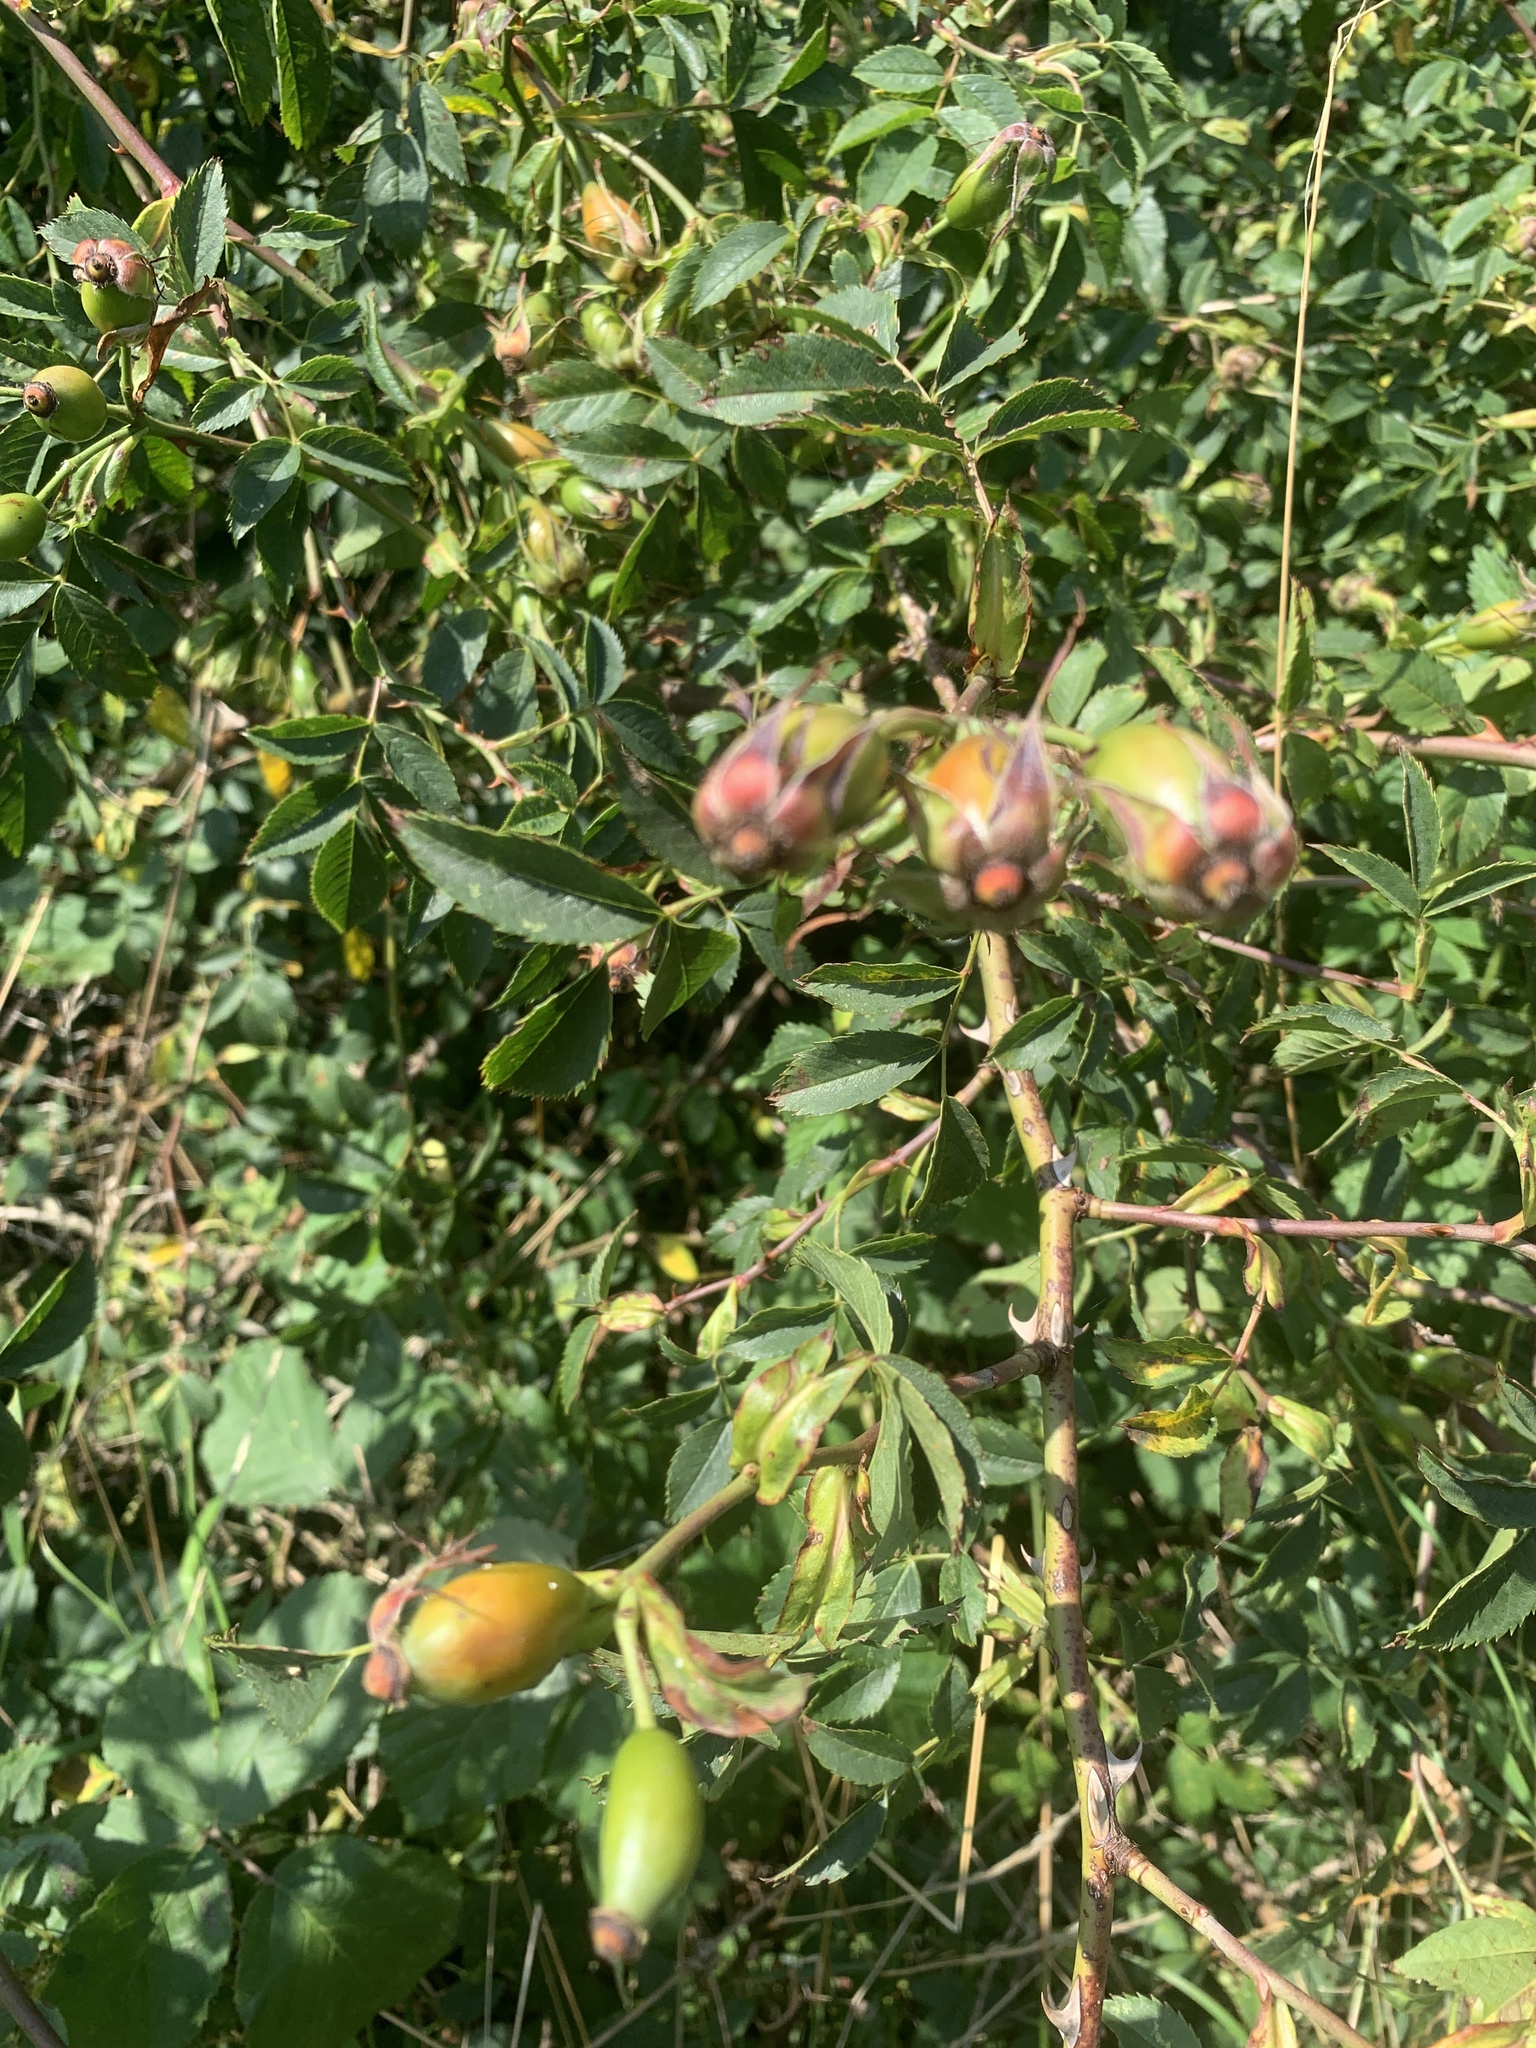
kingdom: Plantae
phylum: Tracheophyta
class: Magnoliopsida
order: Rosales
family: Rosaceae
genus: Rosa
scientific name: Rosa canina
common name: Dog rose
